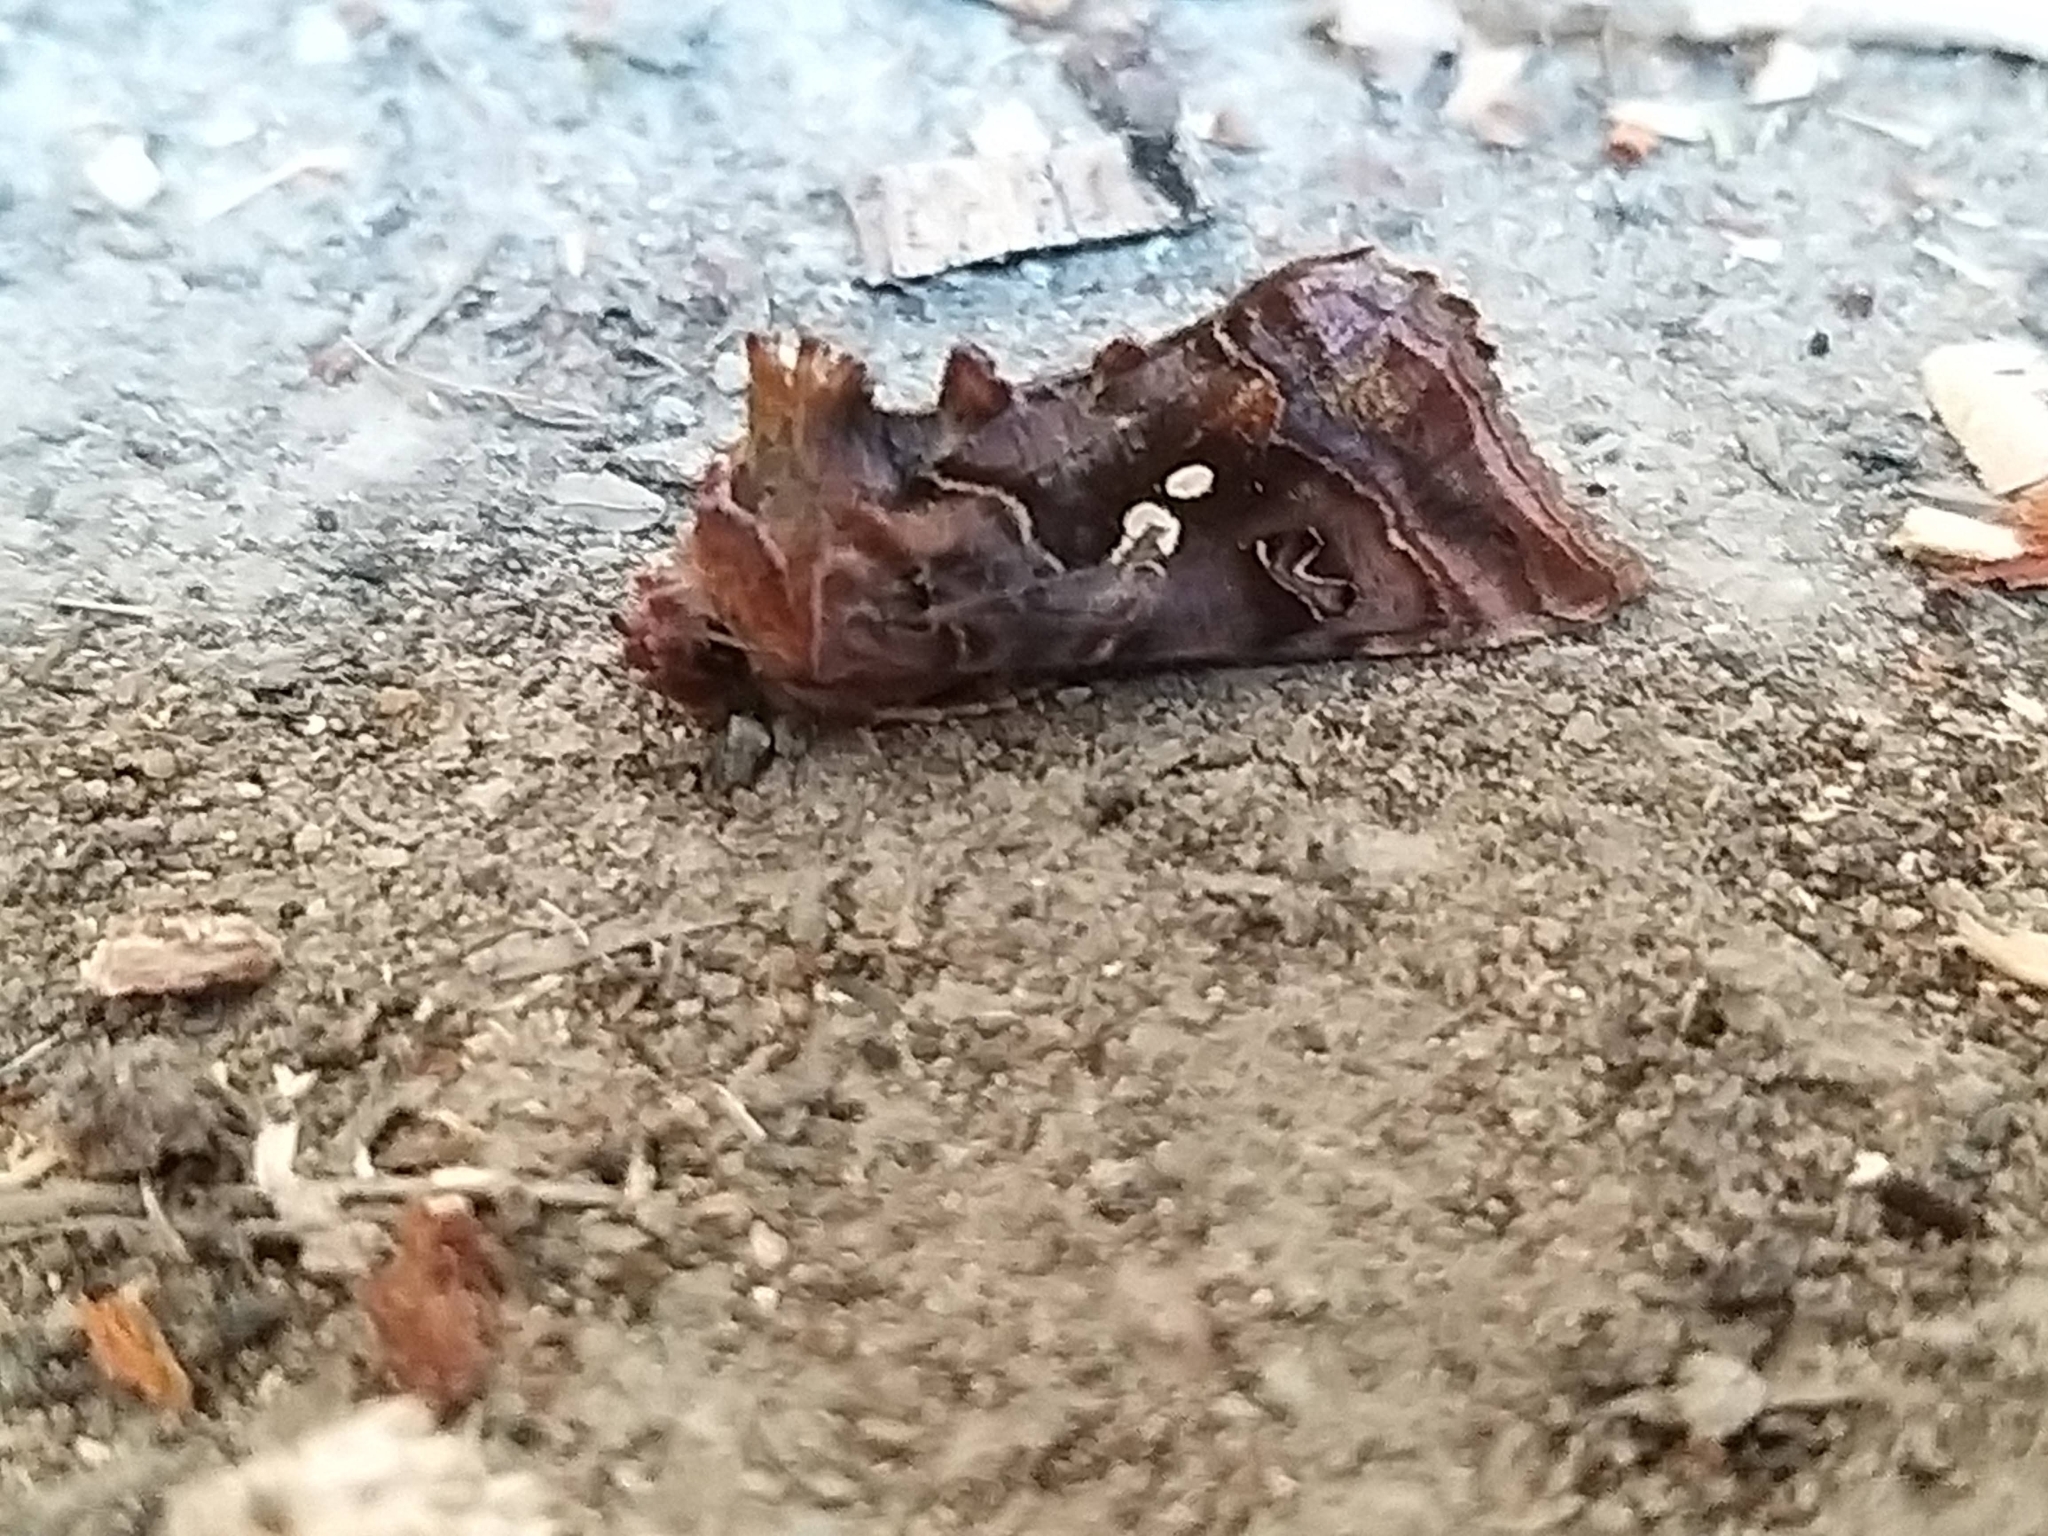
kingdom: Animalia
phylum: Arthropoda
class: Insecta
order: Lepidoptera
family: Noctuidae
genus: Autographa
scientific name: Autographa pulchrina
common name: Beautiful golden y
